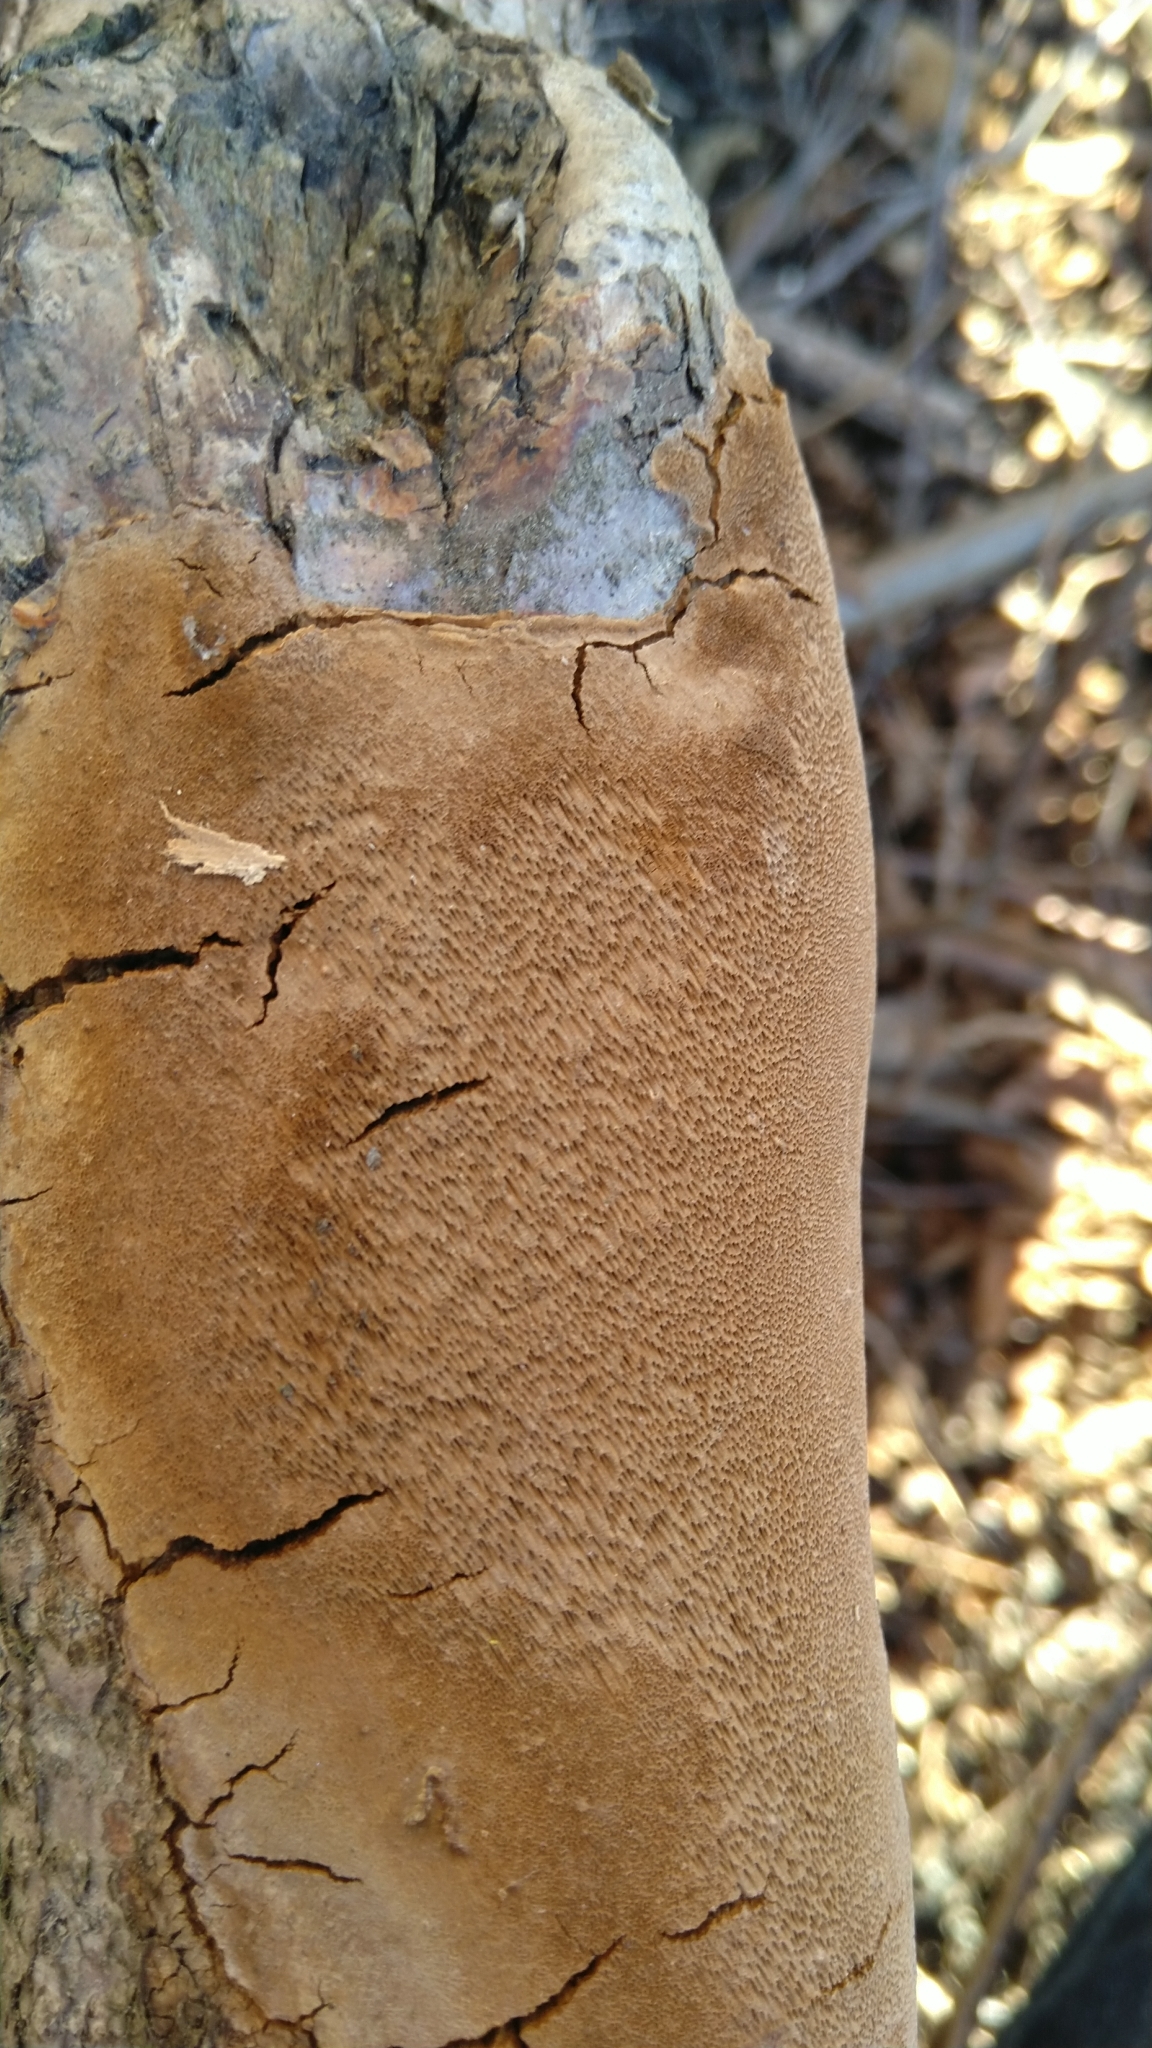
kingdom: Fungi
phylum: Basidiomycota
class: Agaricomycetes
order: Hymenochaetales
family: Hymenochaetaceae
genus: Fomitiporia
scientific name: Fomitiporia punctata
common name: Elbowpatch crust
